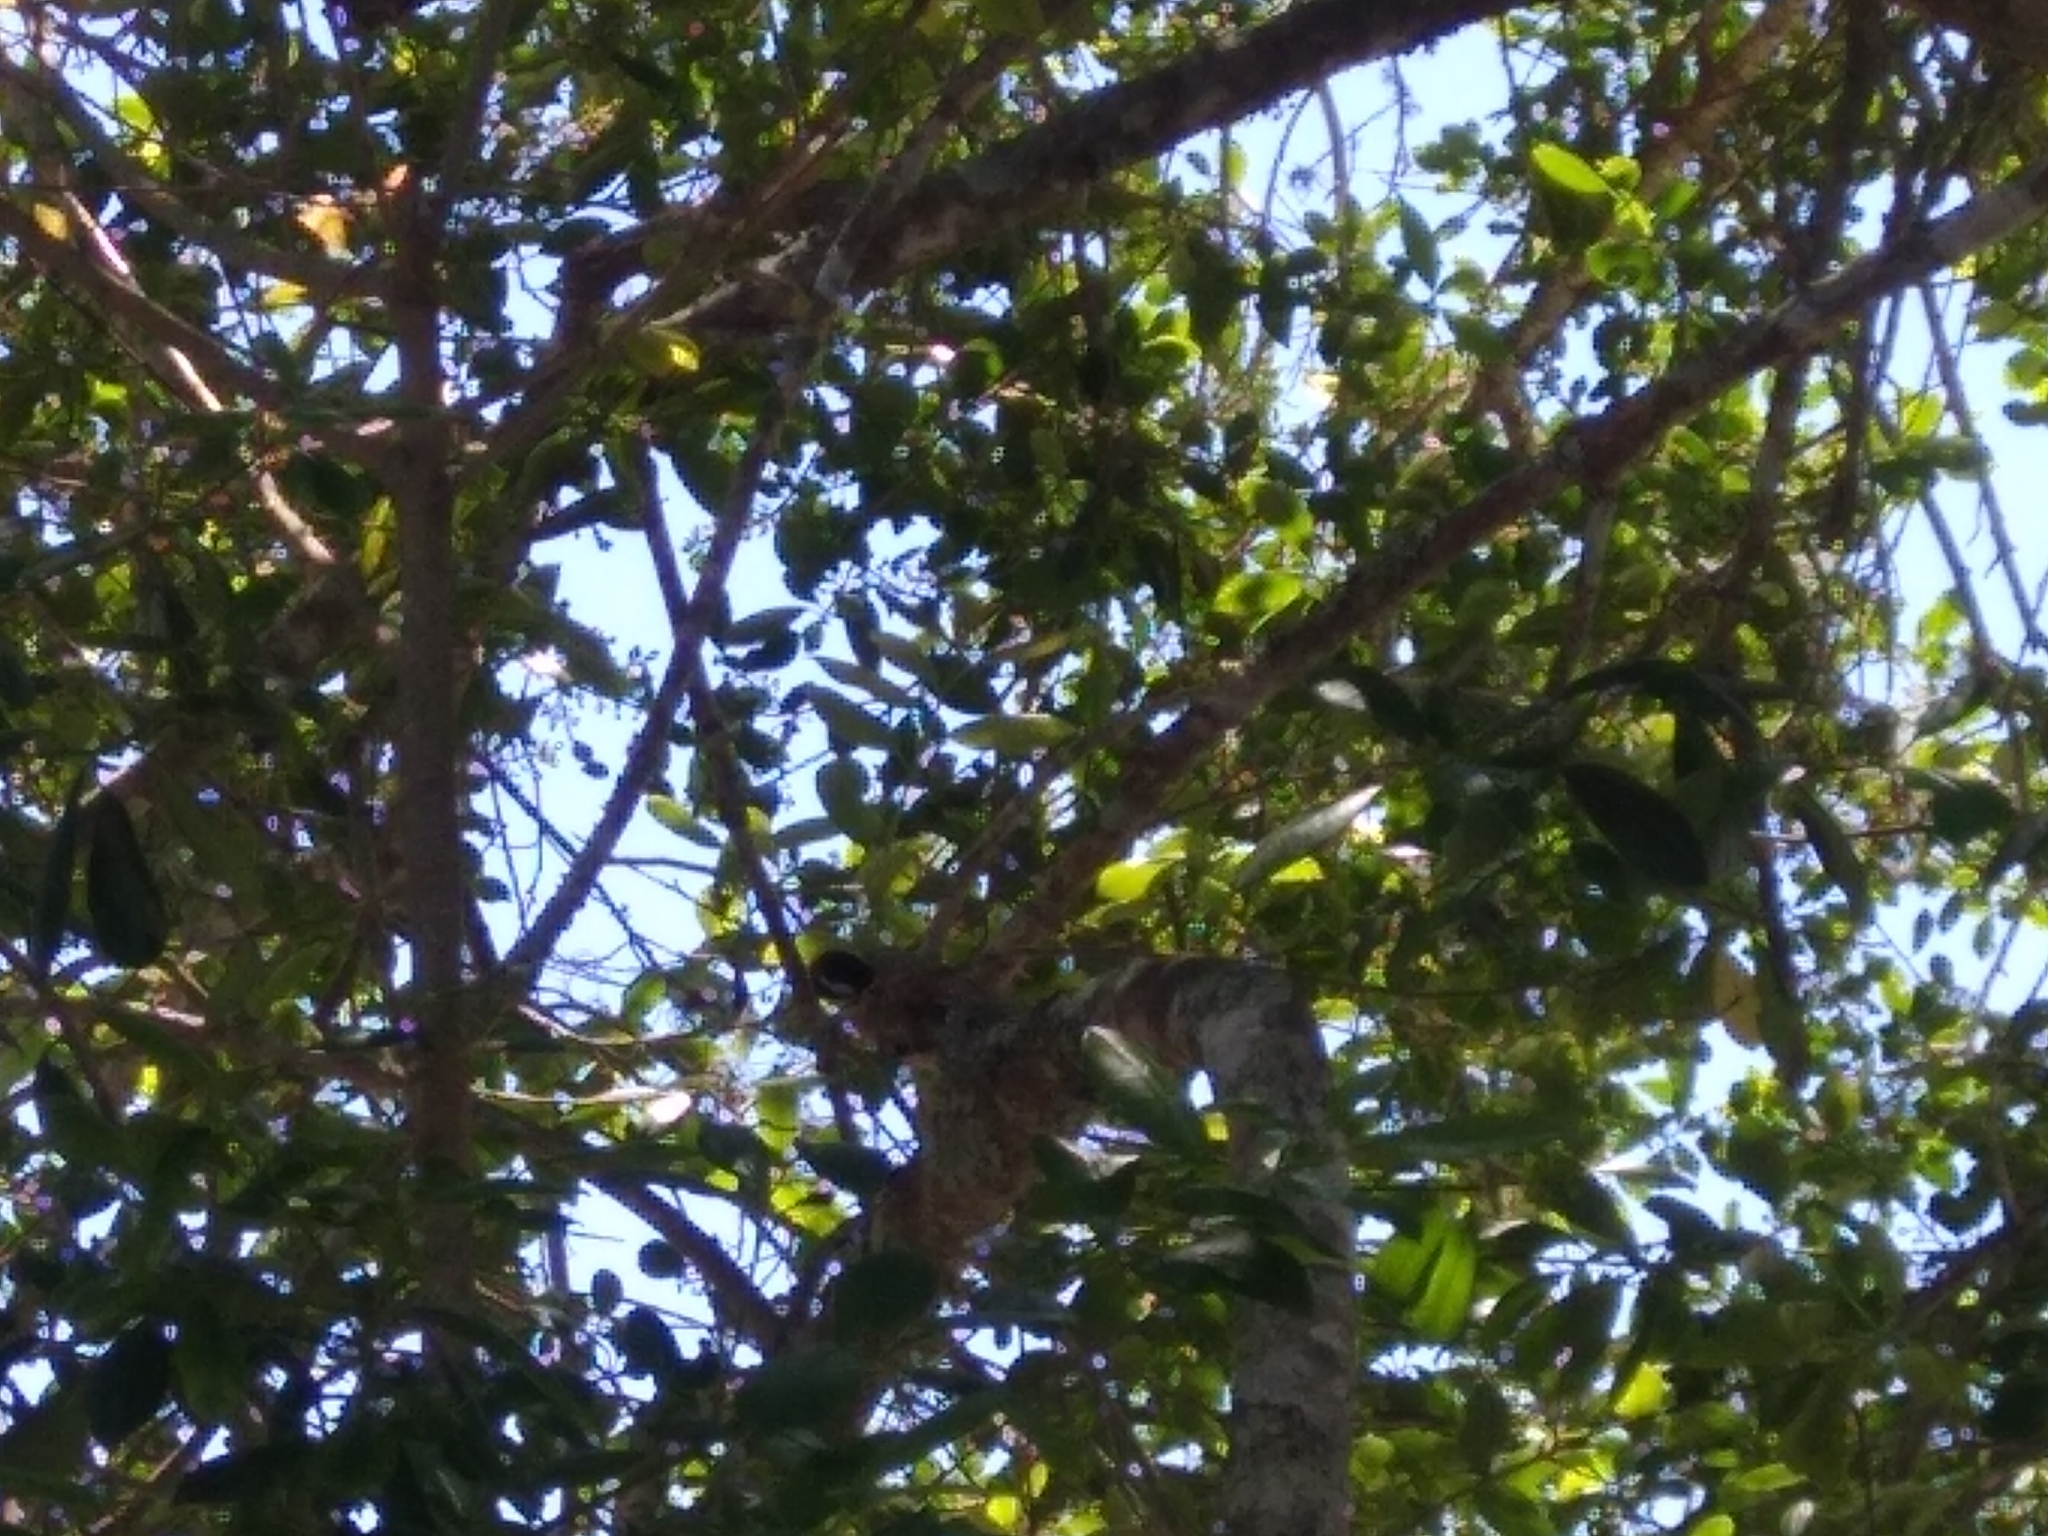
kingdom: Animalia
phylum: Chordata
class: Aves
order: Piciformes
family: Picidae
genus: Dryobates
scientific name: Dryobates pubescens
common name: Downy woodpecker
